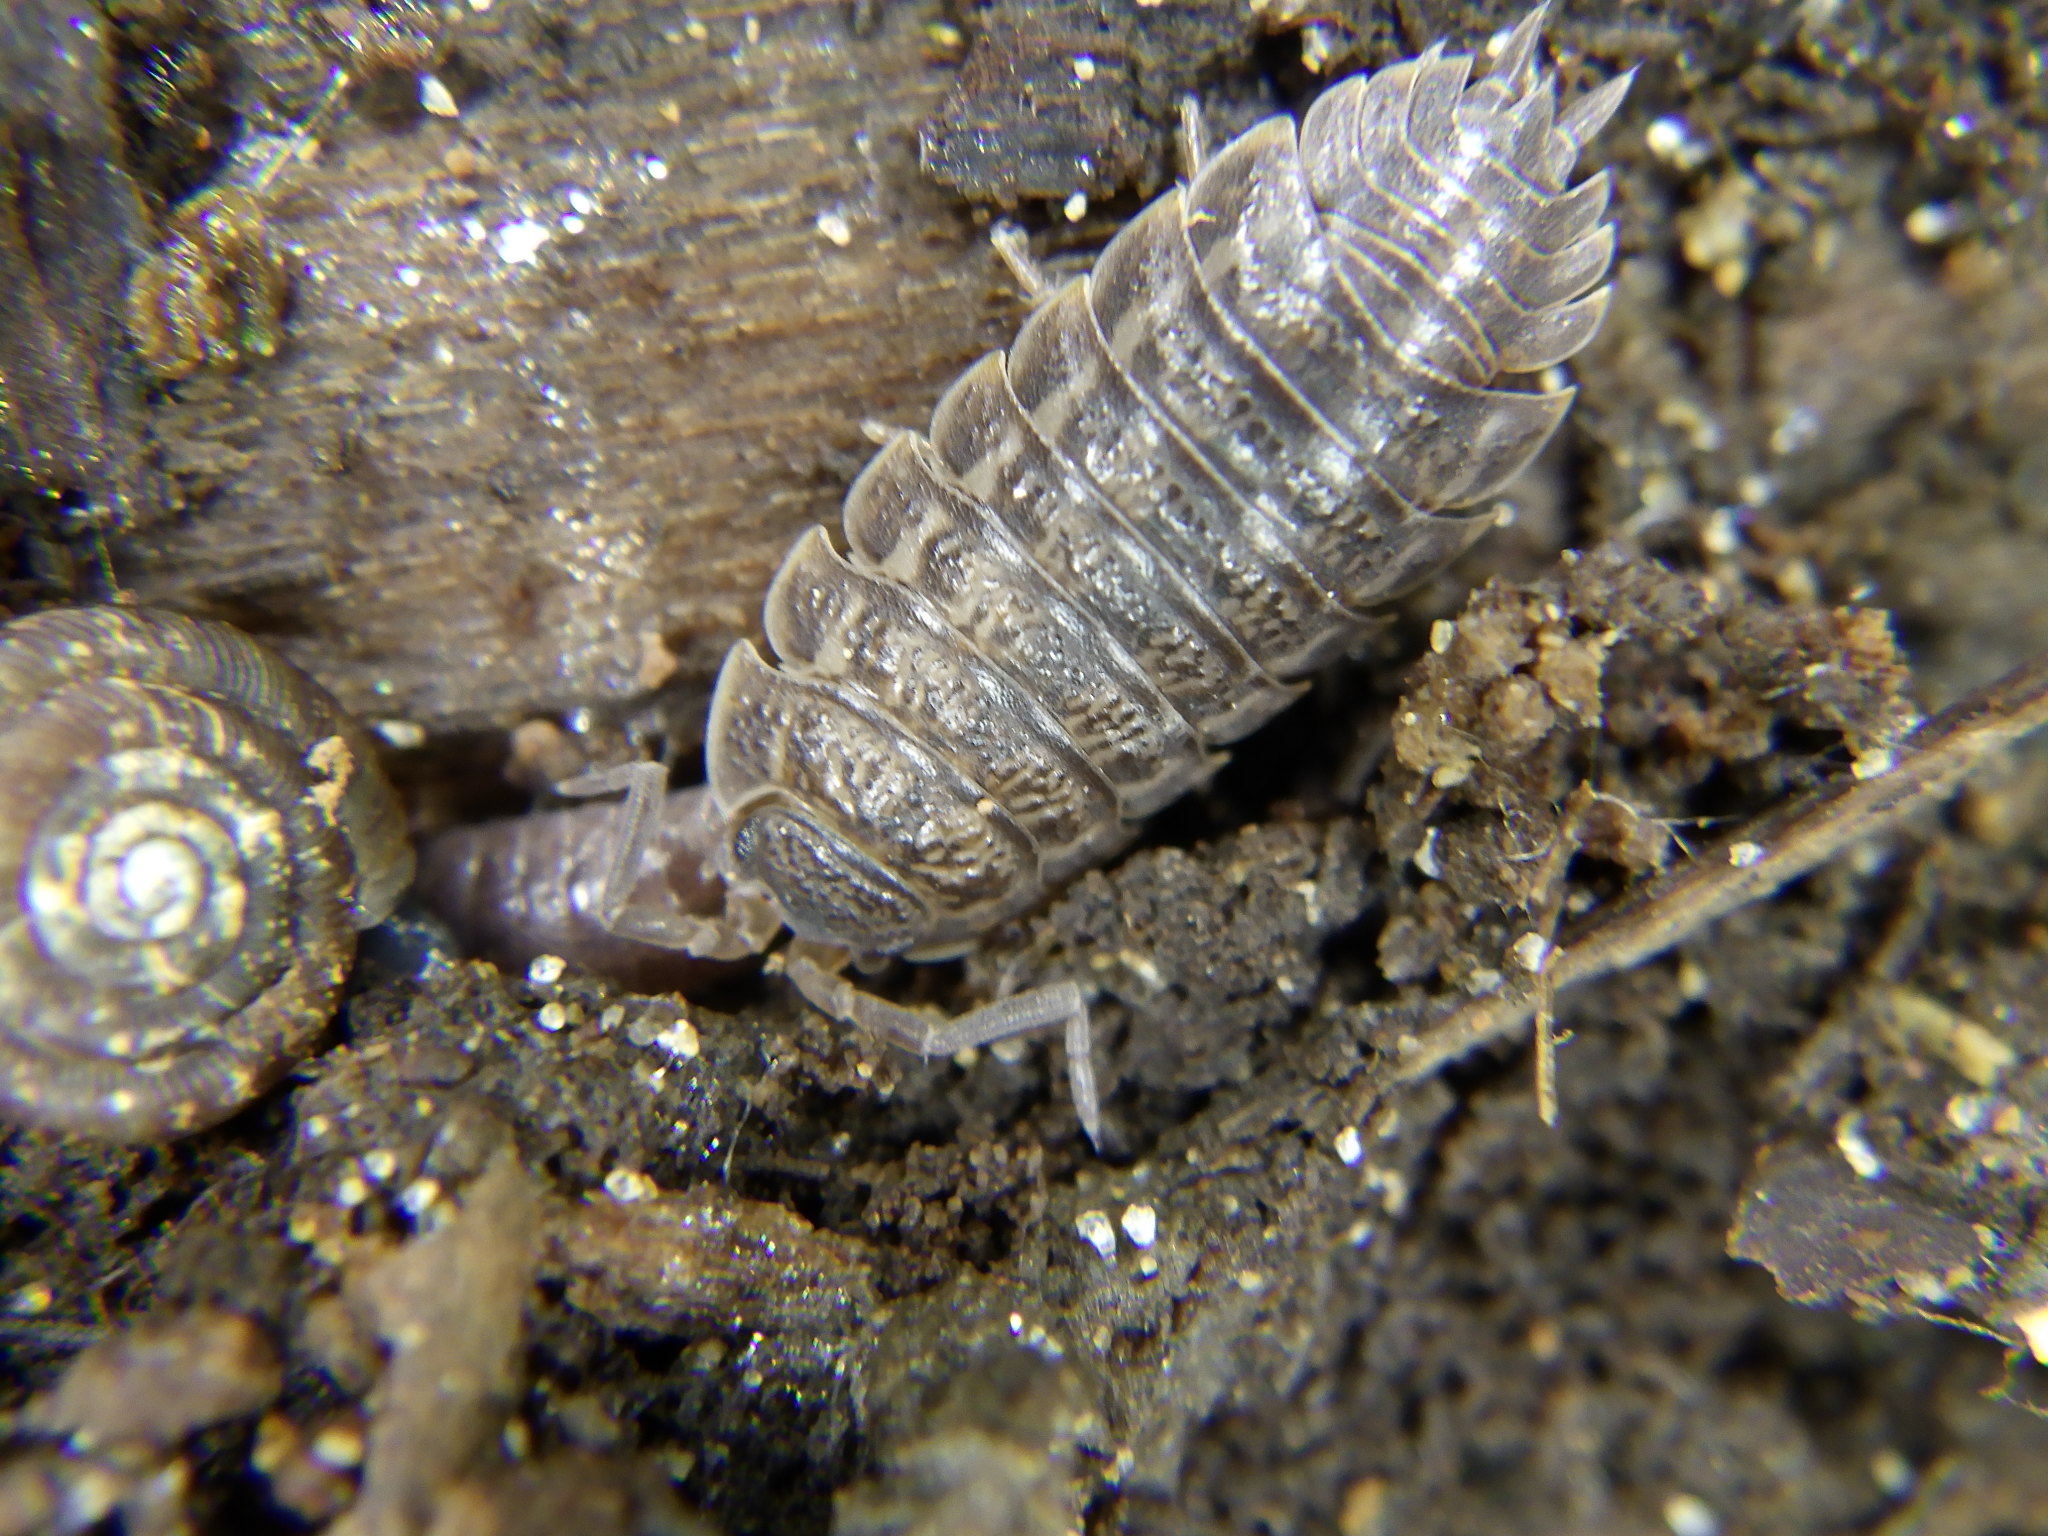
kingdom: Animalia
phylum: Arthropoda
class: Malacostraca
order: Isopoda
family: Trachelipodidae
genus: Trachelipus
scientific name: Trachelipus rathkii
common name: Isopod
